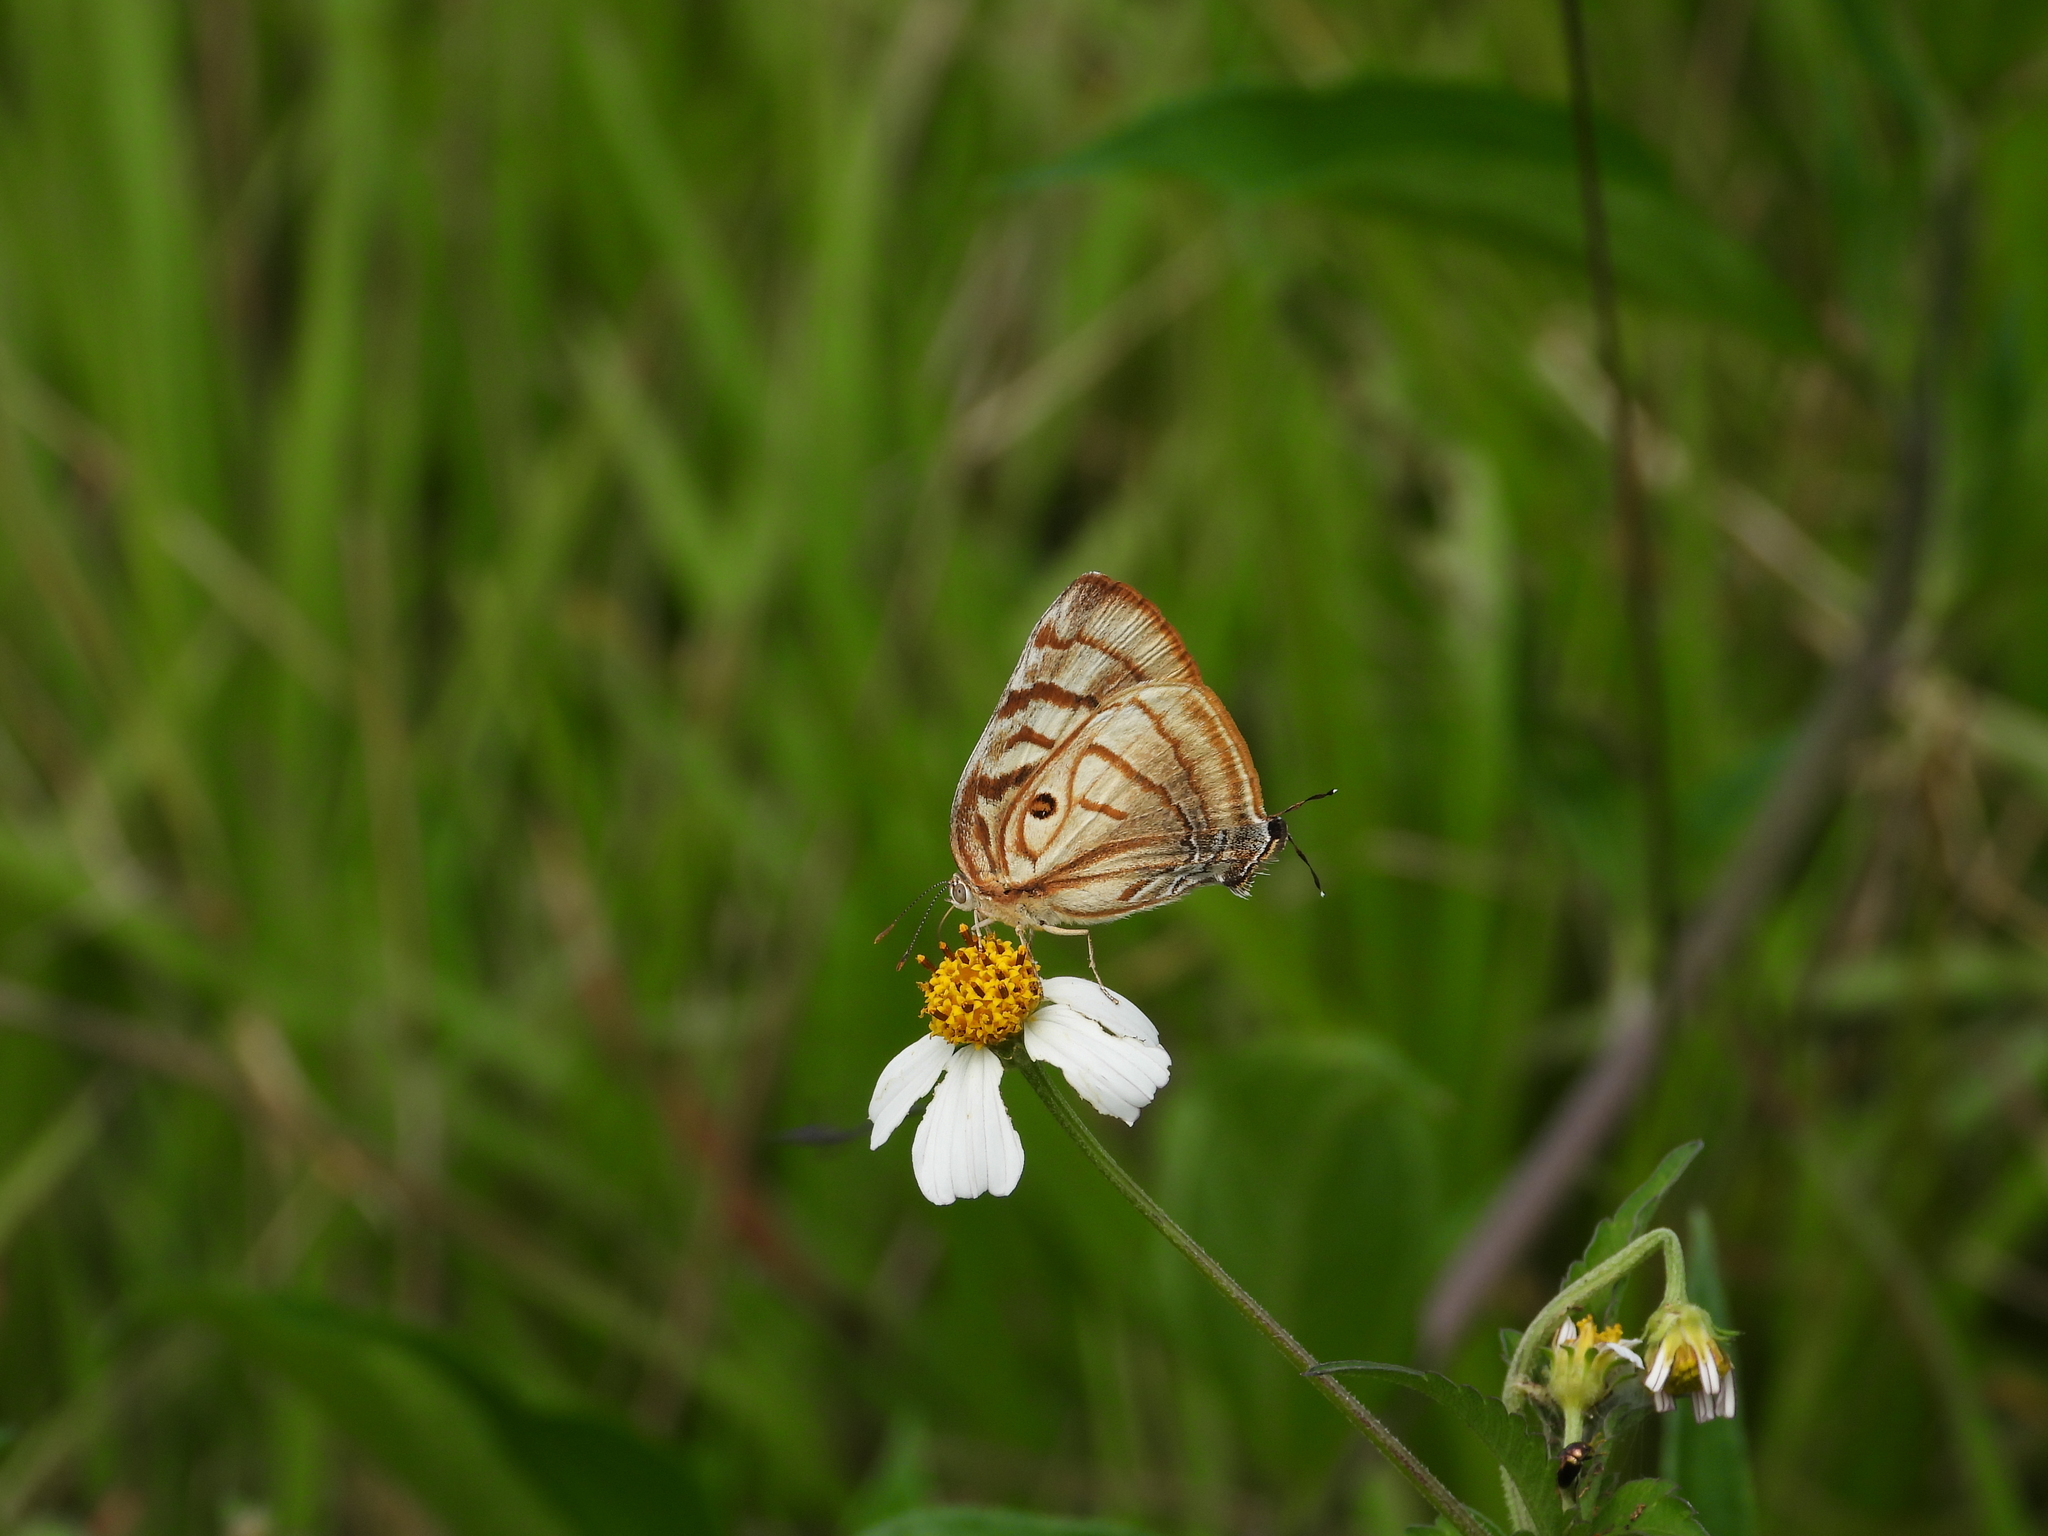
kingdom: Animalia
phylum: Arthropoda
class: Insecta
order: Lepidoptera
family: Lycaenidae
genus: Rekoa
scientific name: Rekoa meton
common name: Meton hairstreak
